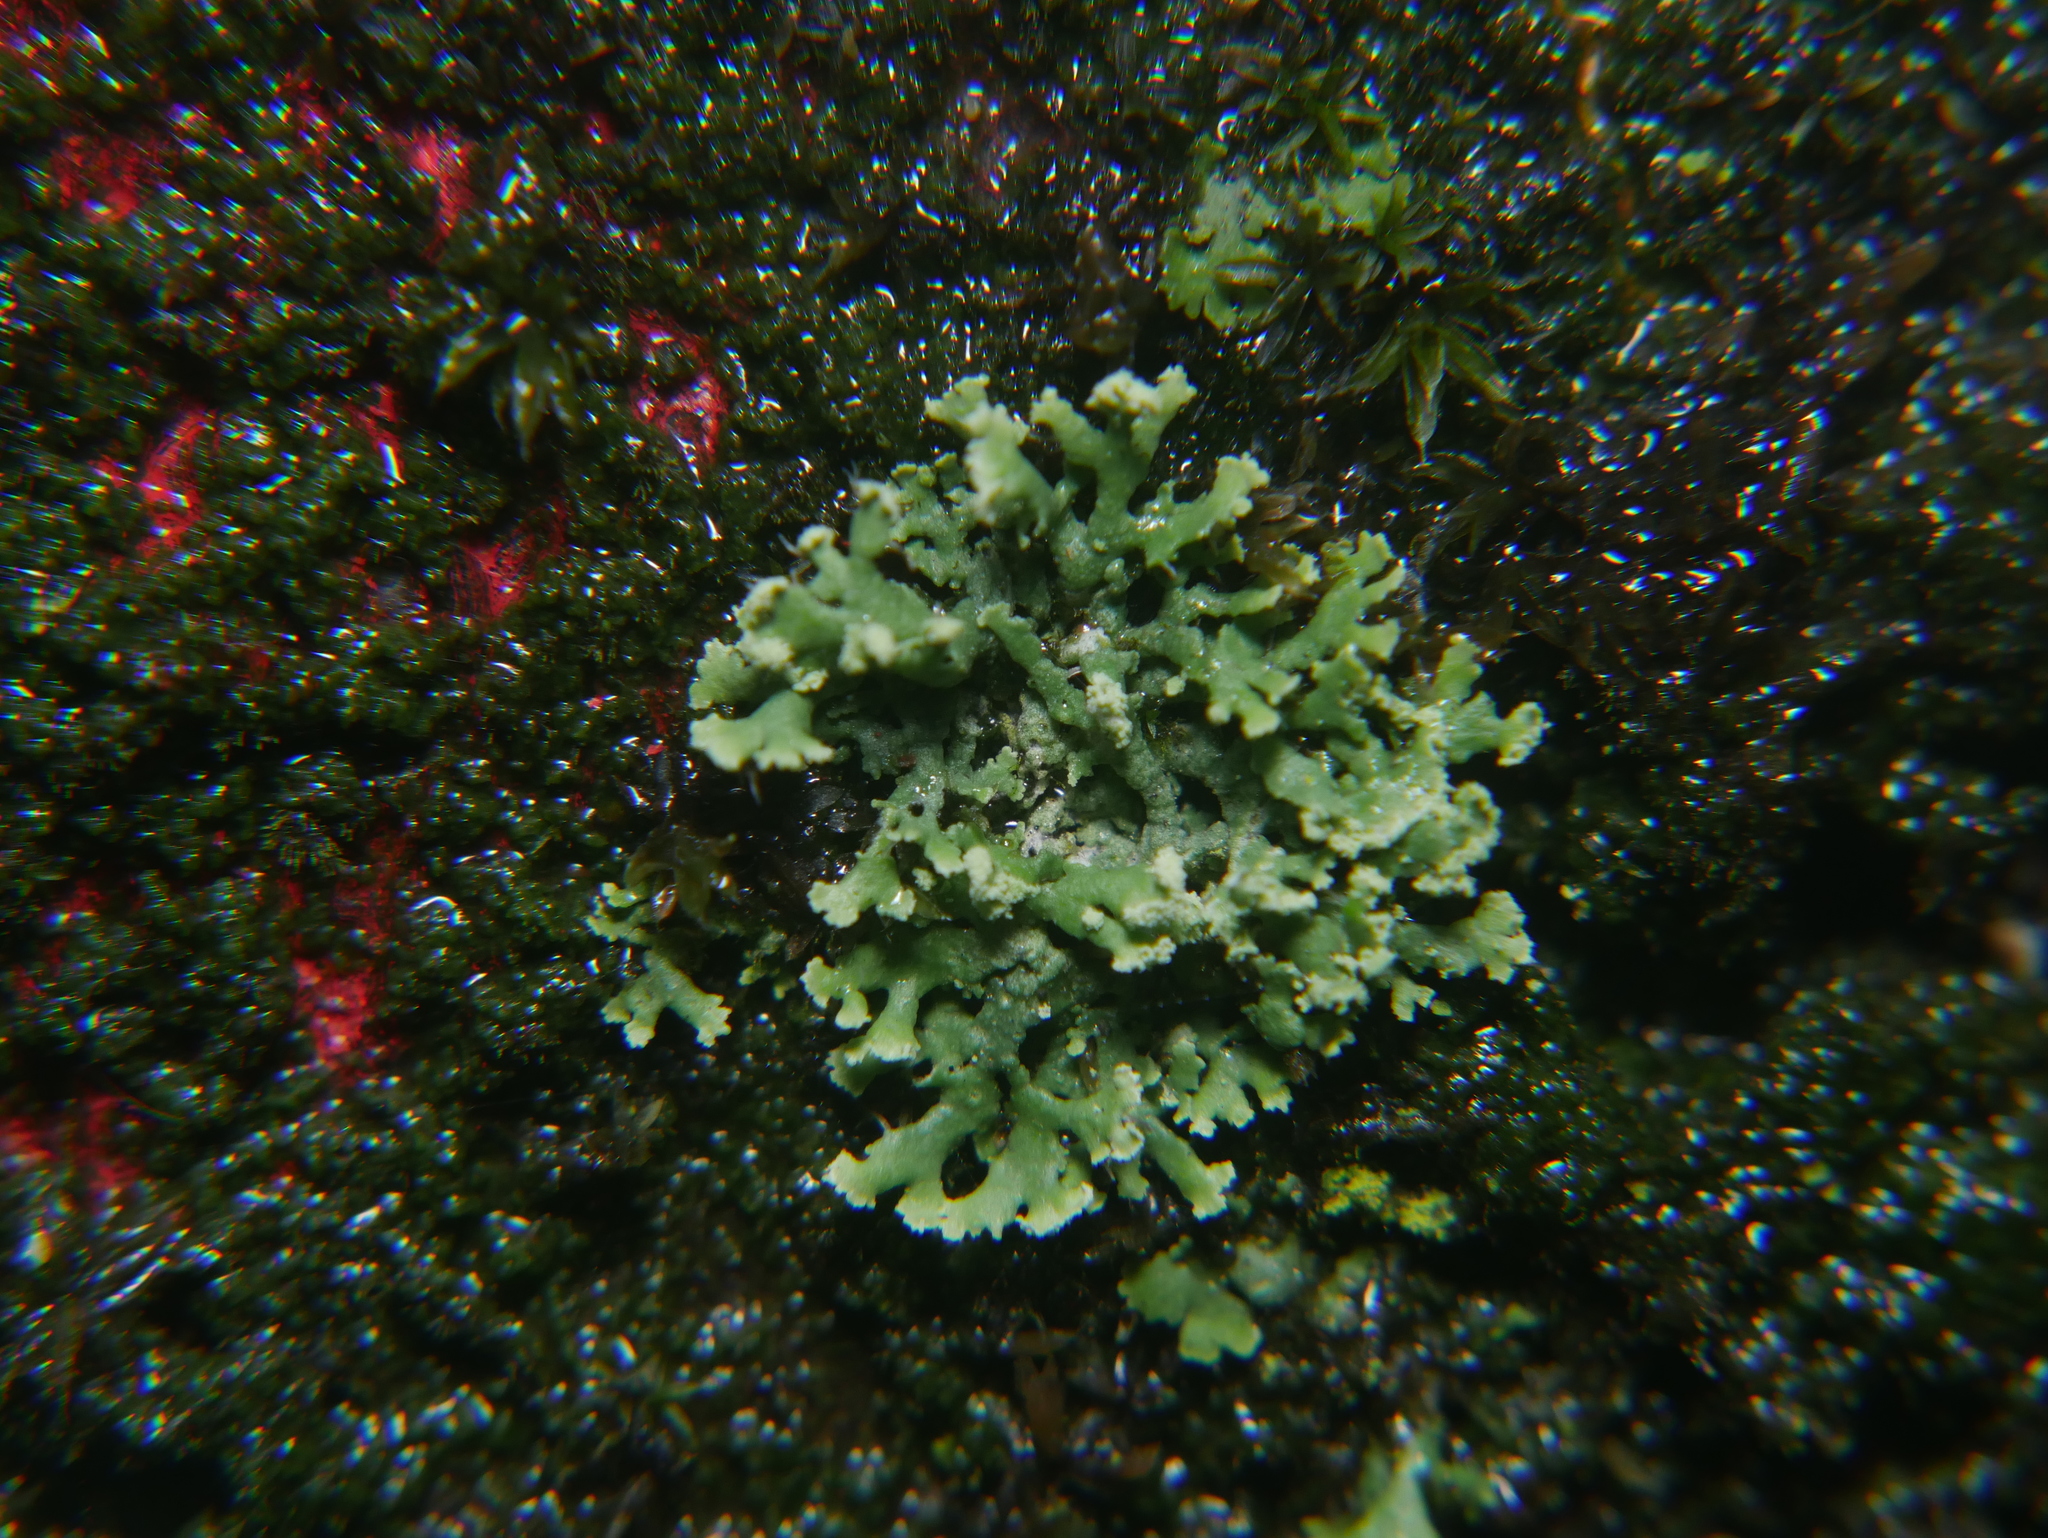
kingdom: Fungi
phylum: Ascomycota
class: Lecanoromycetes
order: Caliciales
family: Physciaceae
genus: Physcia
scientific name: Physcia tenella
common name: Fringed rosette lichen
